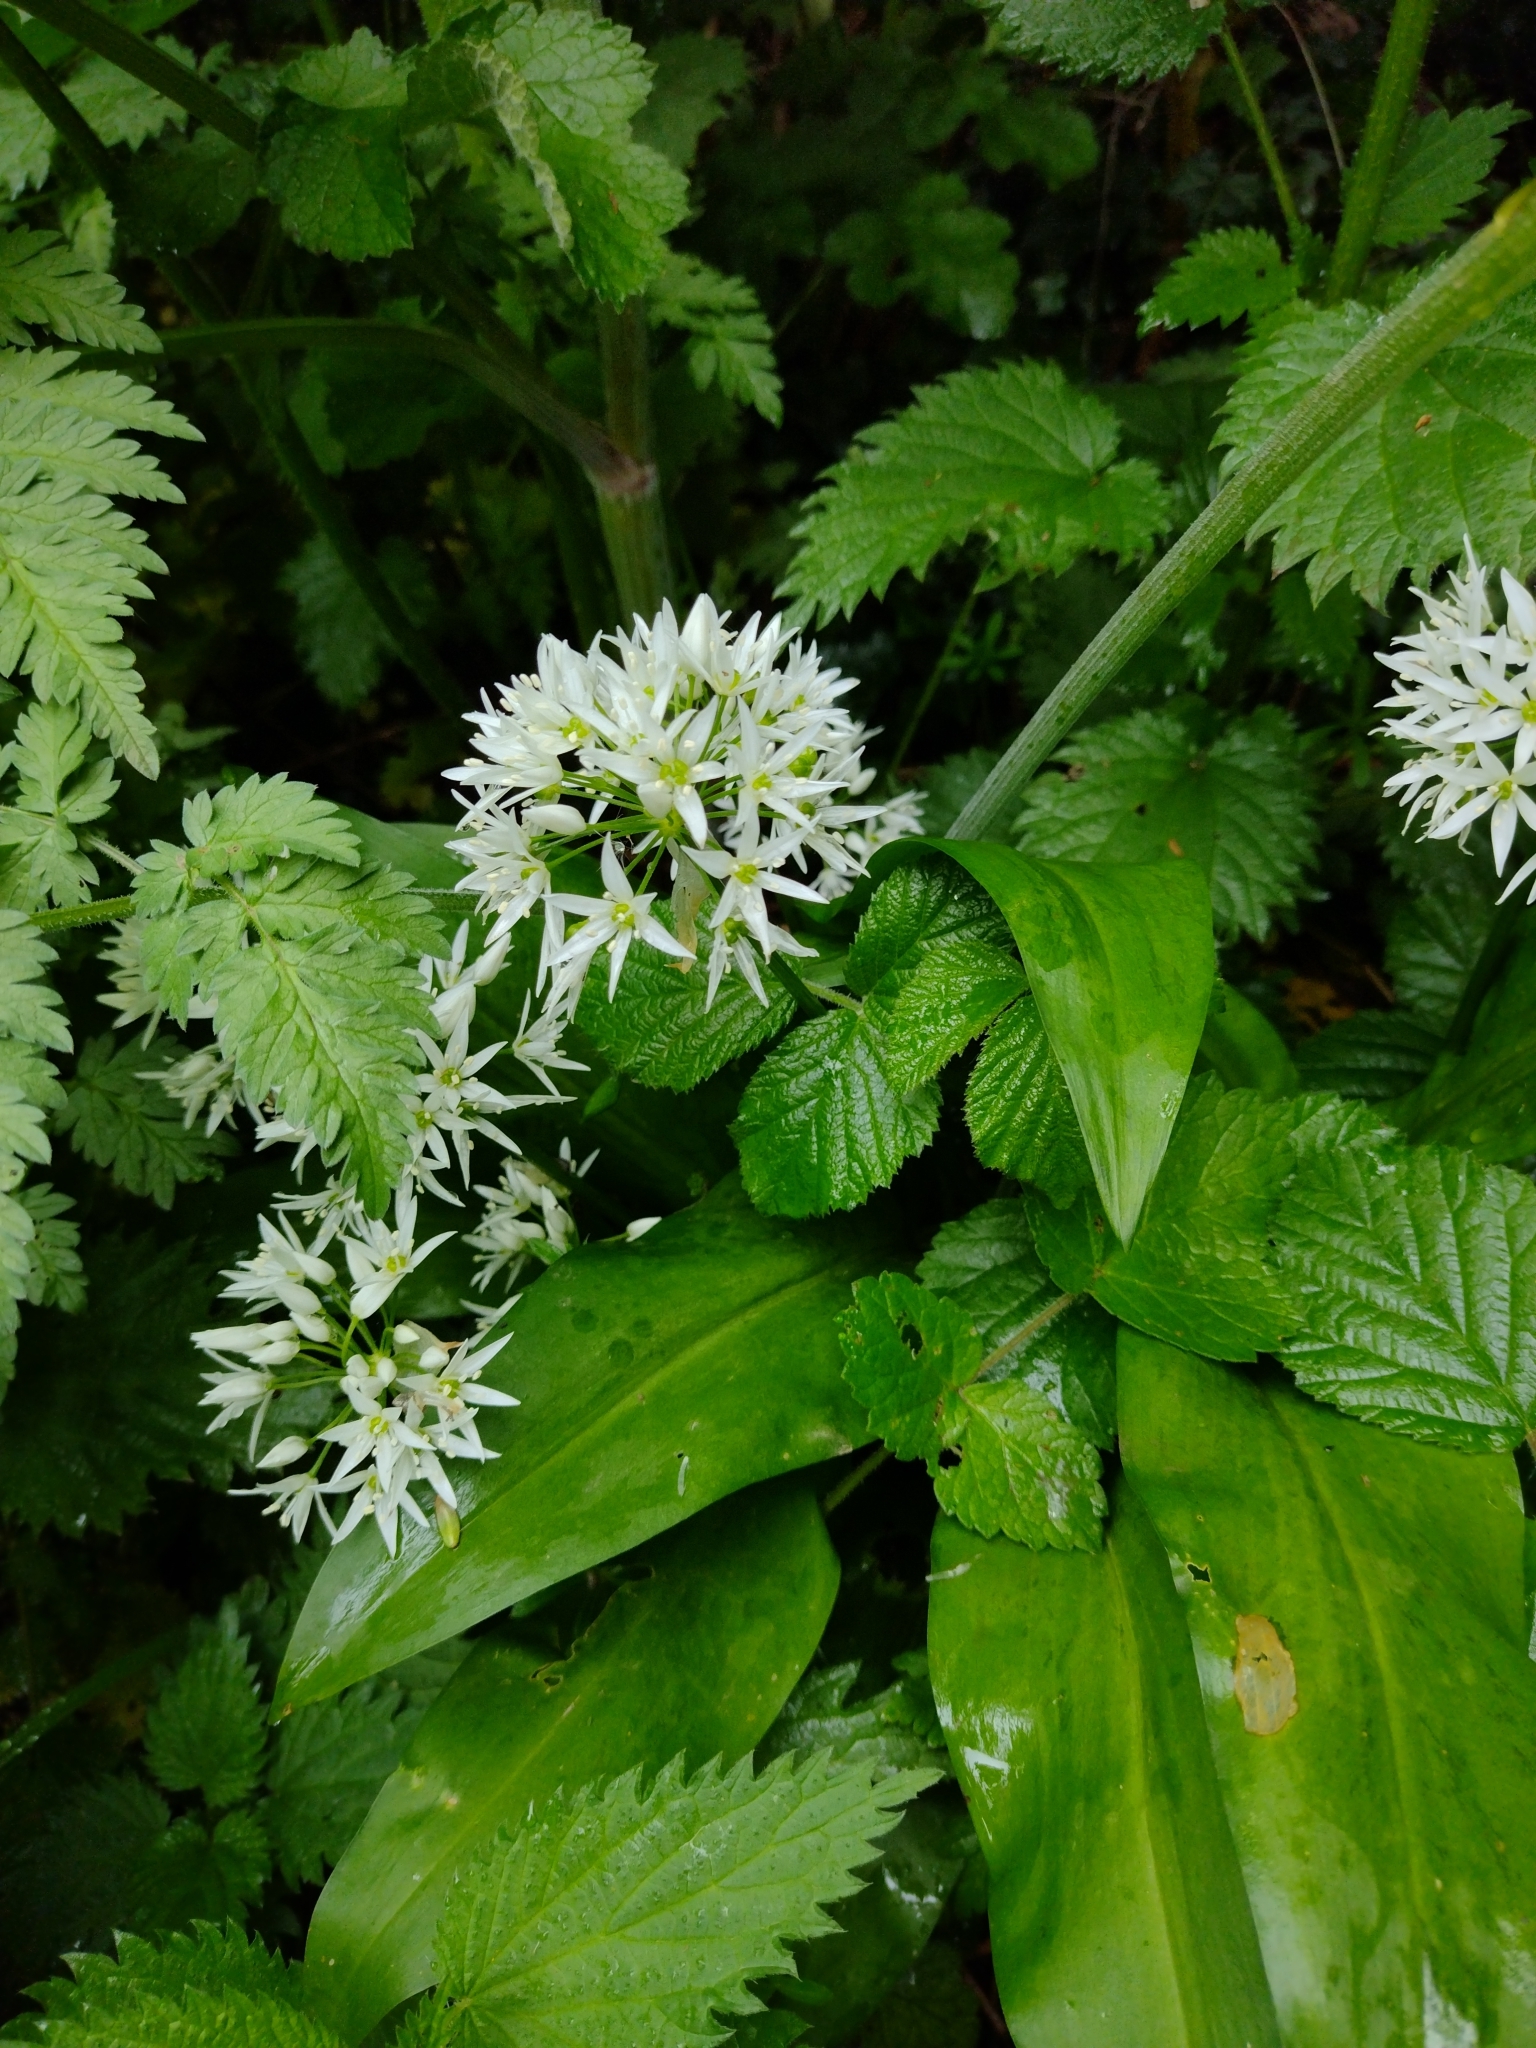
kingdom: Plantae
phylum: Tracheophyta
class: Liliopsida
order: Asparagales
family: Amaryllidaceae
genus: Allium
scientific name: Allium ursinum
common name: Ramsons
